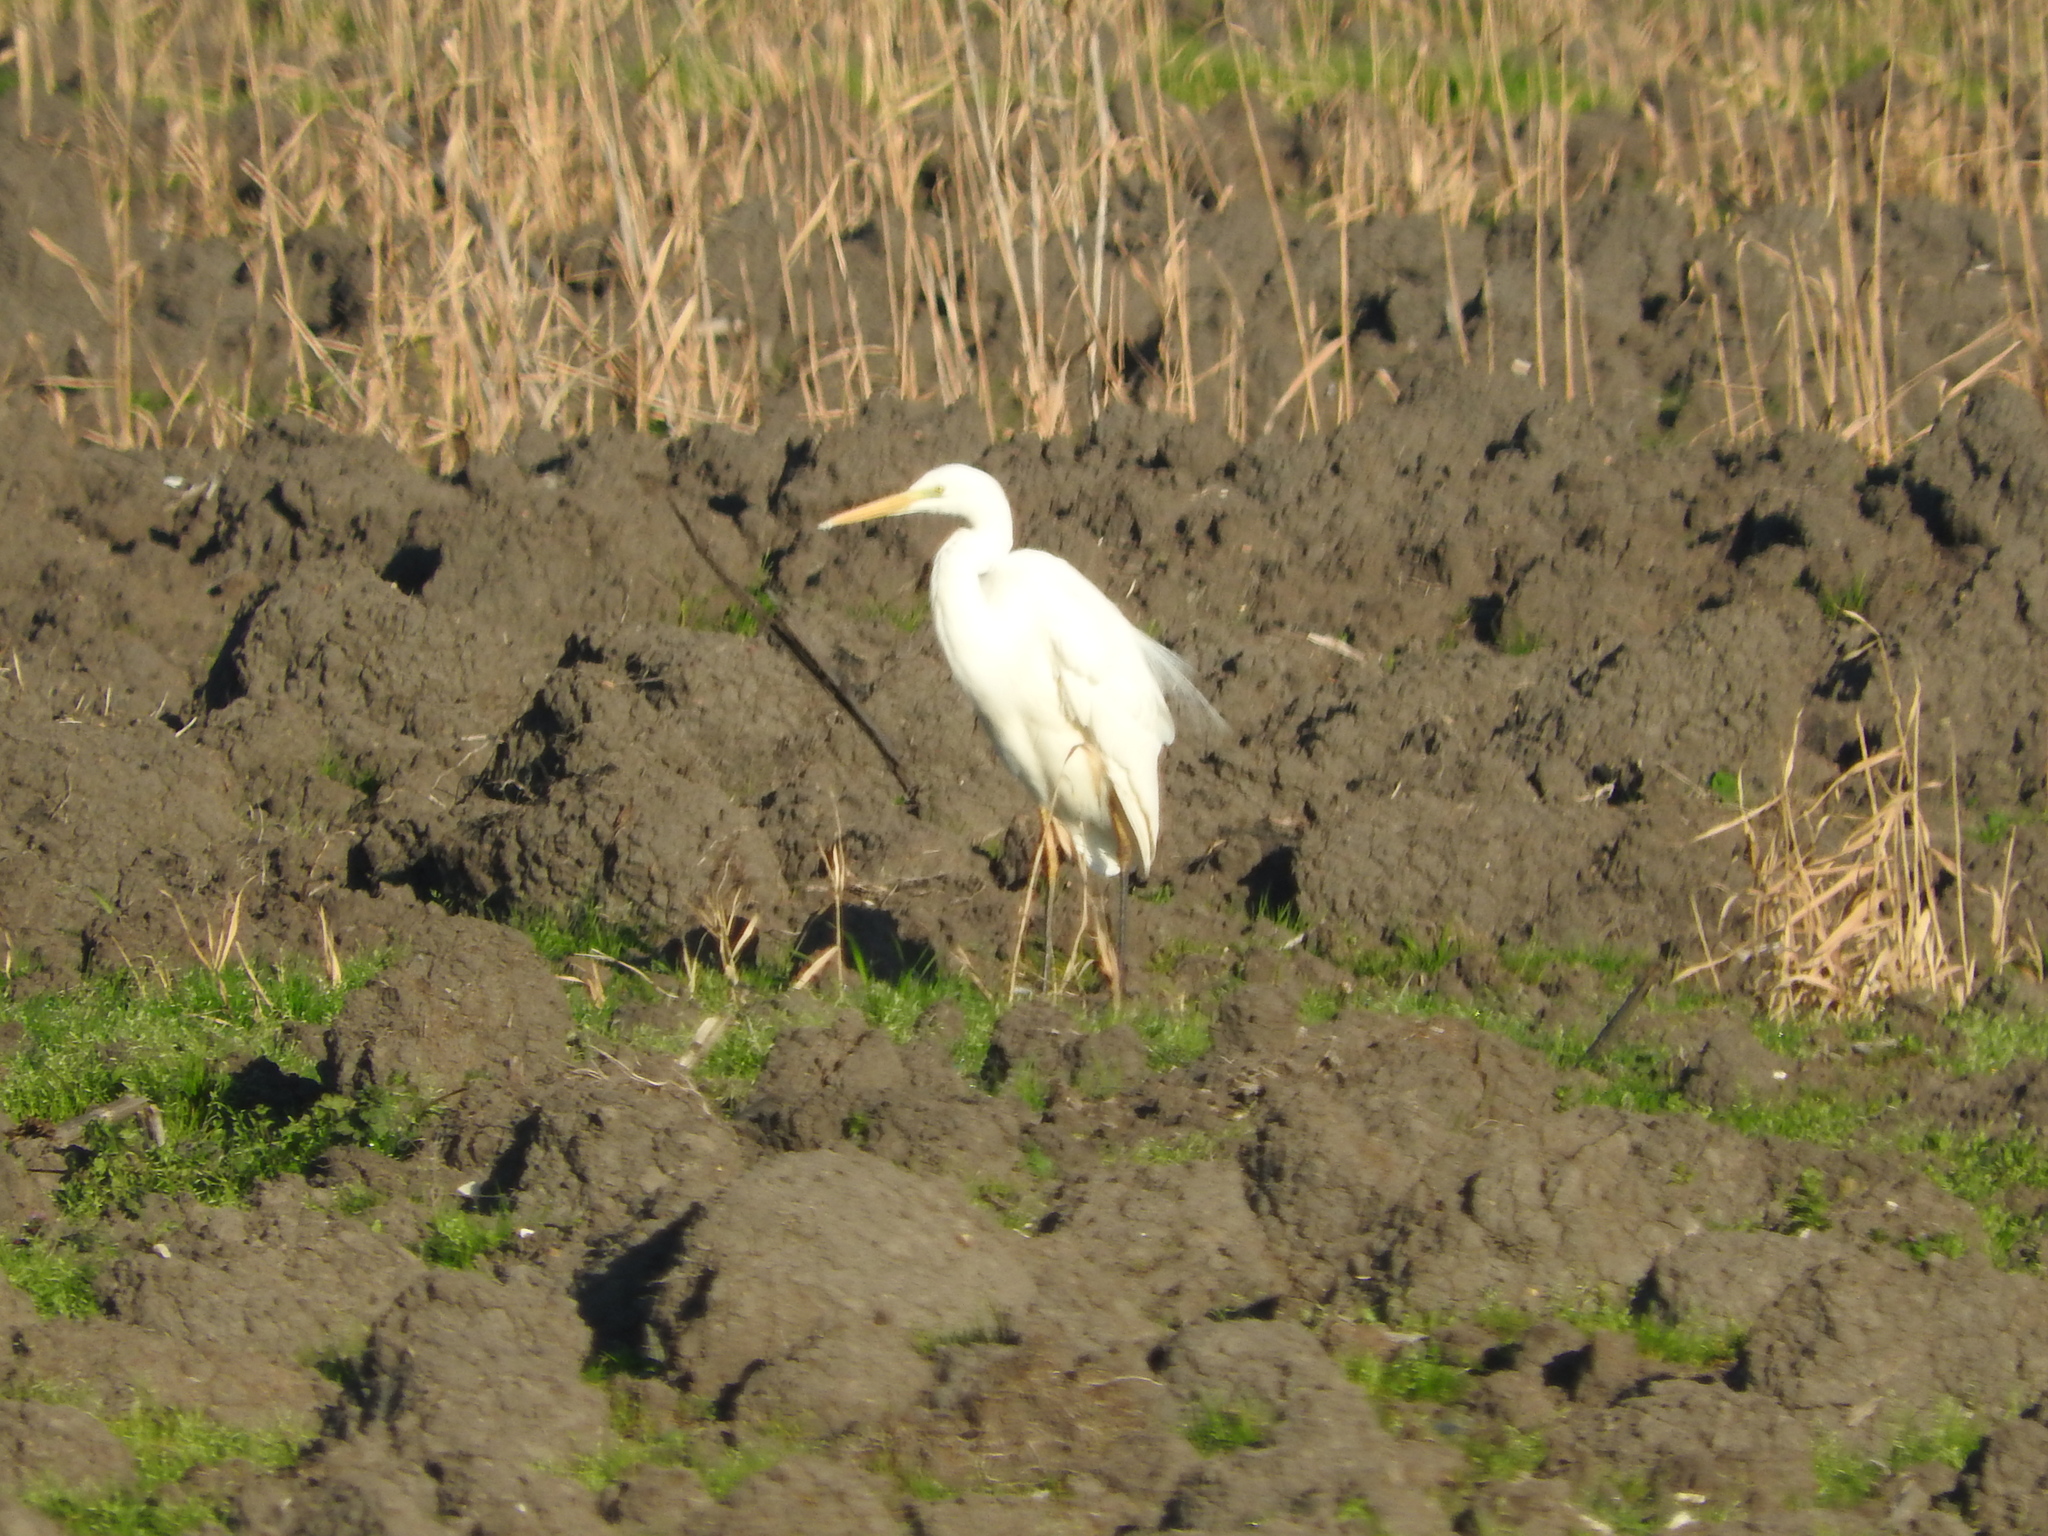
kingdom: Animalia
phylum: Chordata
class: Aves
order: Pelecaniformes
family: Ardeidae
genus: Ardea
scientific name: Ardea alba
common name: Great egret
